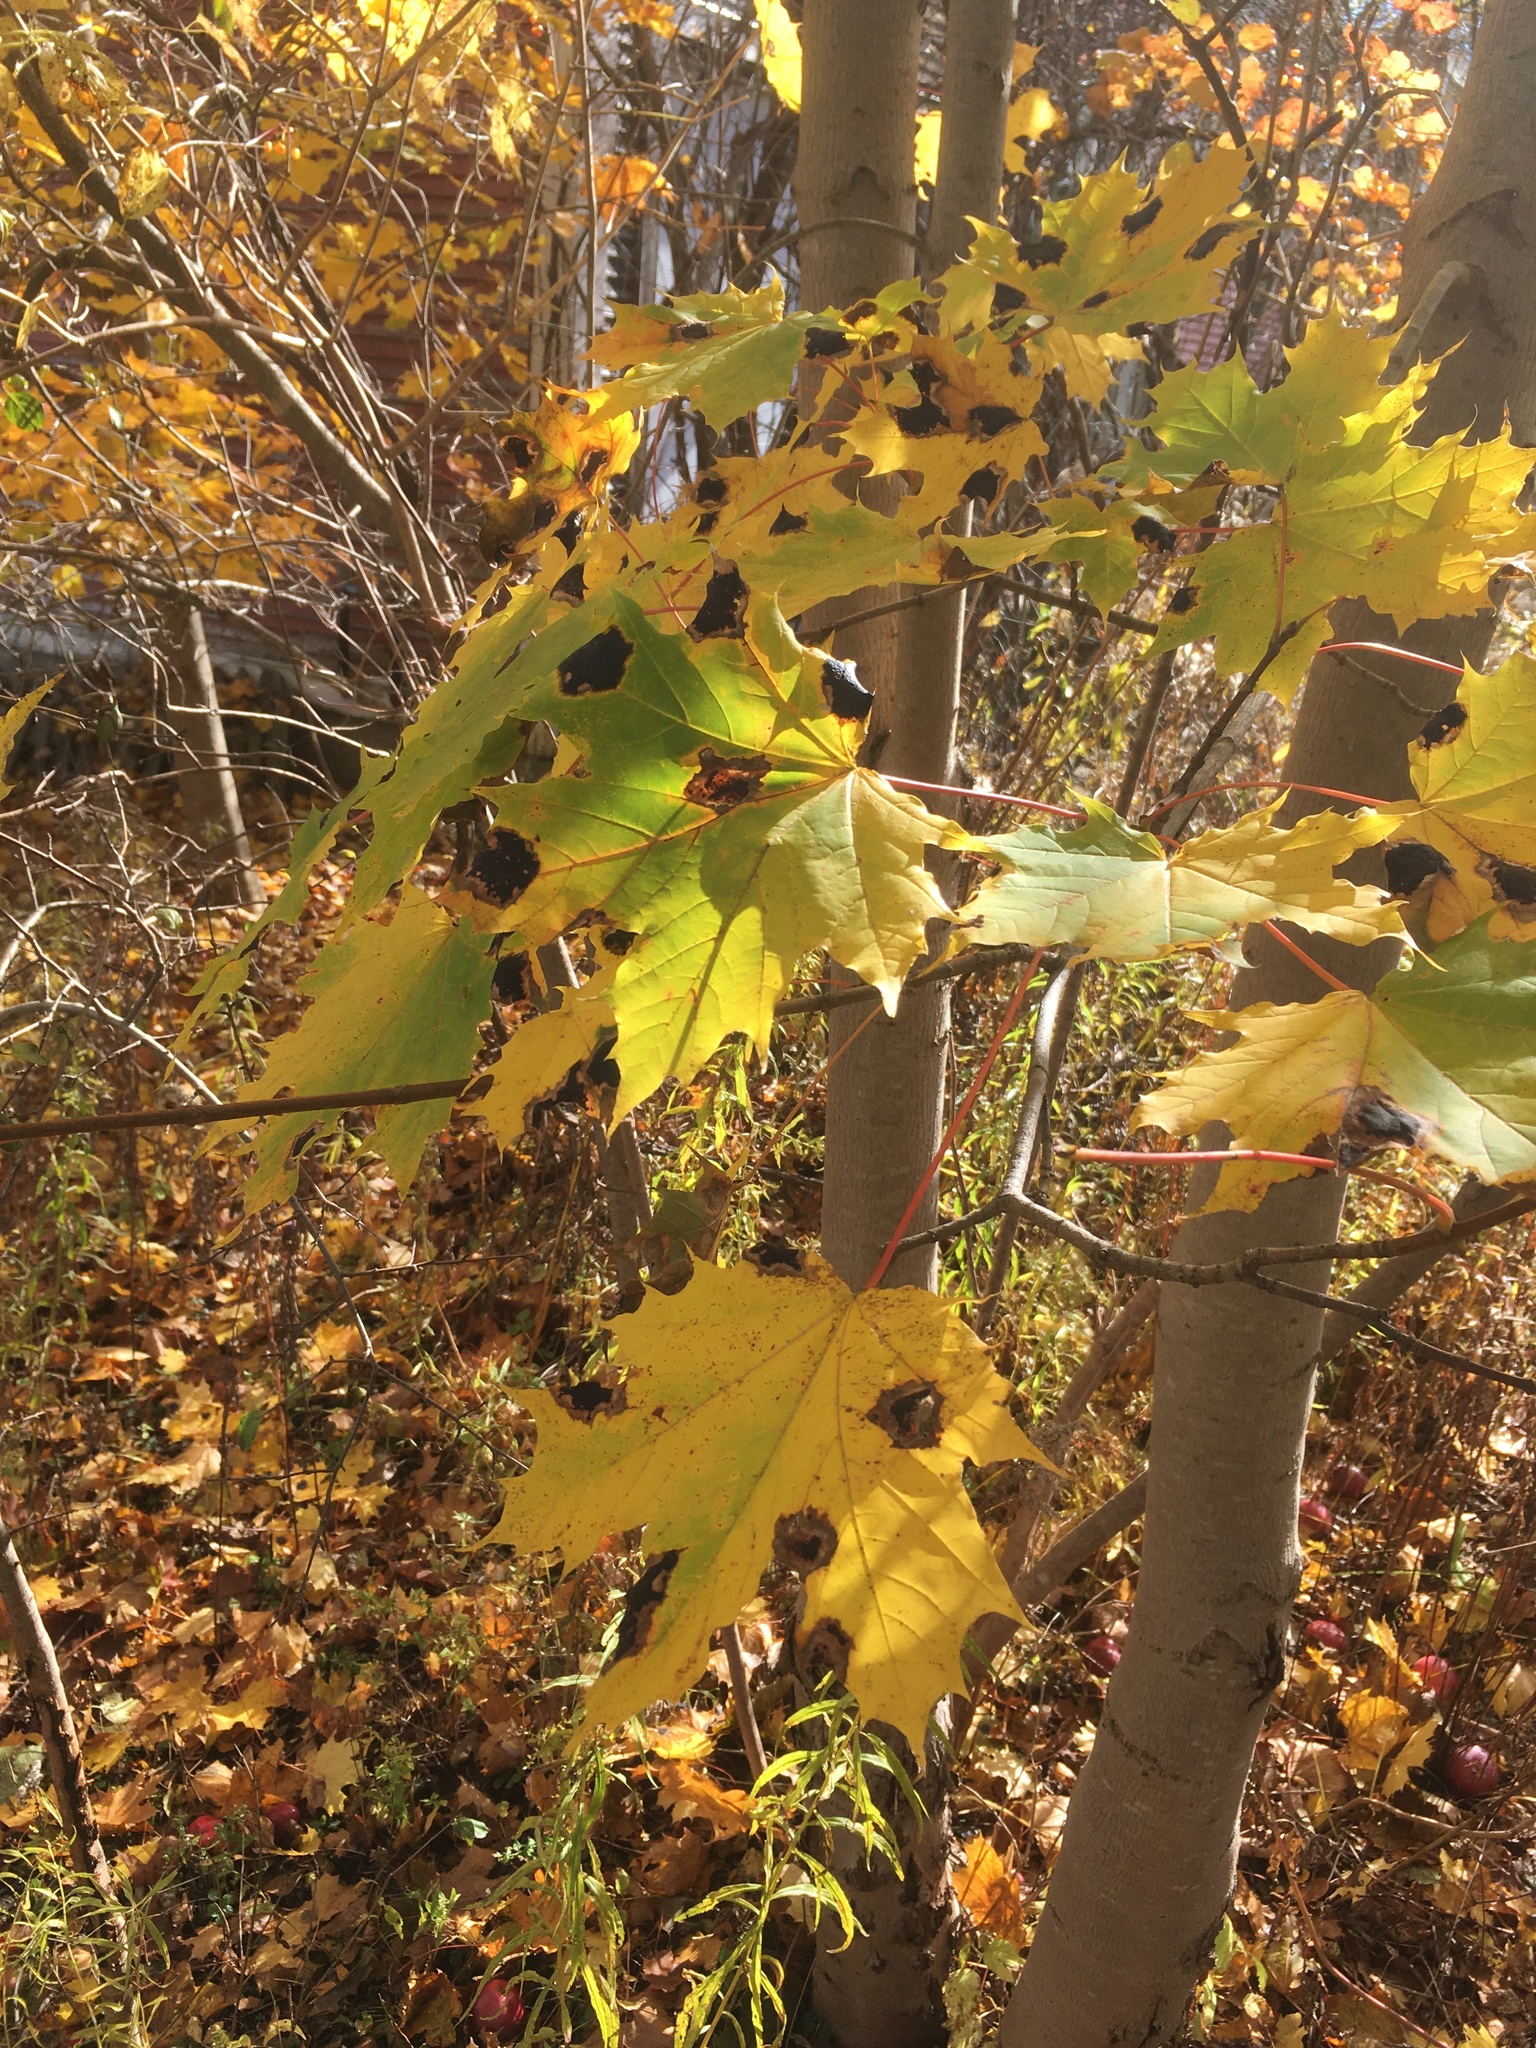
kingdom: Fungi
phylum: Ascomycota
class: Leotiomycetes
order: Rhytismatales
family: Rhytismataceae
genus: Rhytisma
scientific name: Rhytisma acerinum
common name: European tar spot
